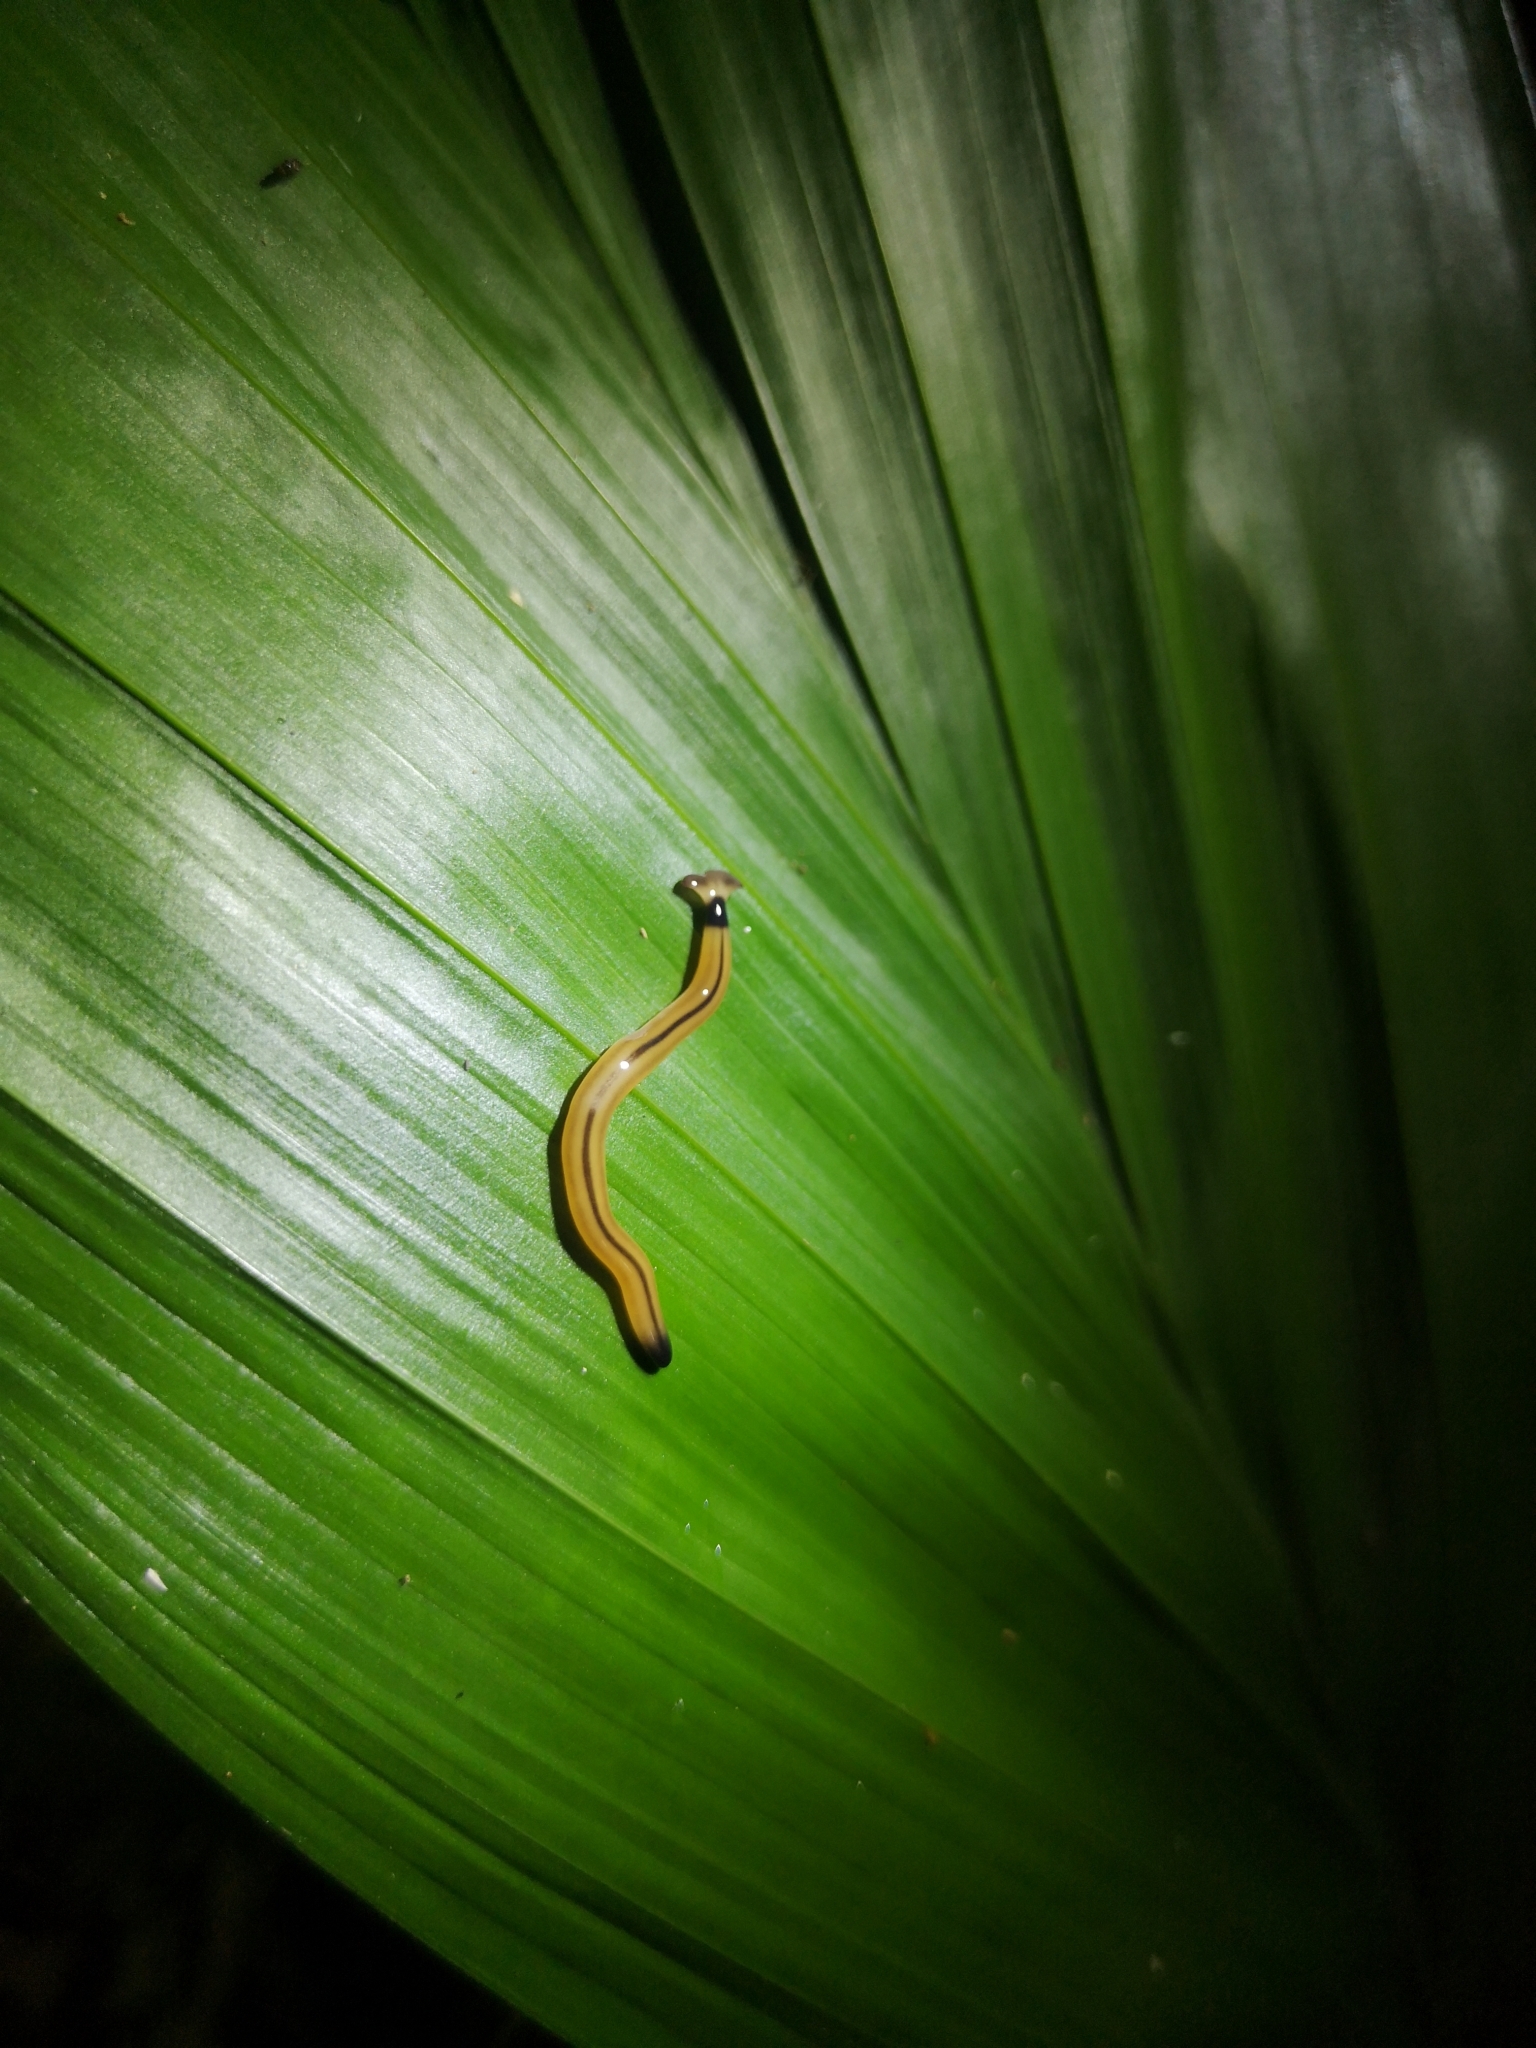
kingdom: Animalia
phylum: Platyhelminthes
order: Tricladida
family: Geoplanidae
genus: Bipalium
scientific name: Bipalium vagum
